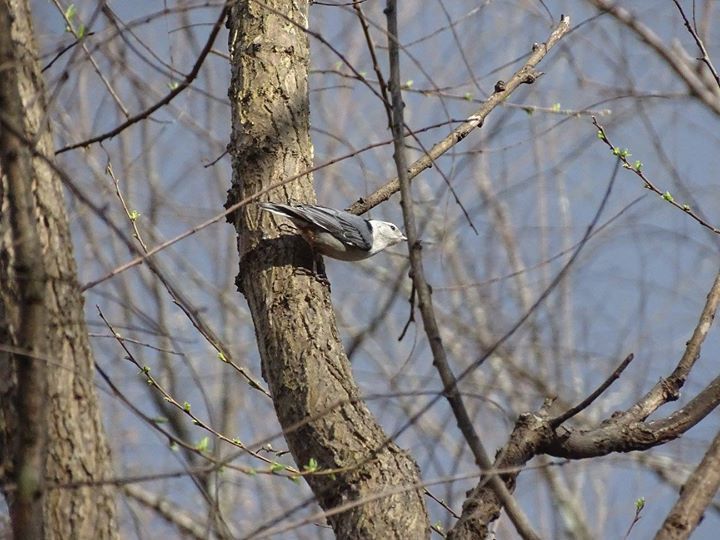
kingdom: Animalia
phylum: Chordata
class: Aves
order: Passeriformes
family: Sittidae
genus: Sitta
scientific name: Sitta carolinensis
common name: White-breasted nuthatch
